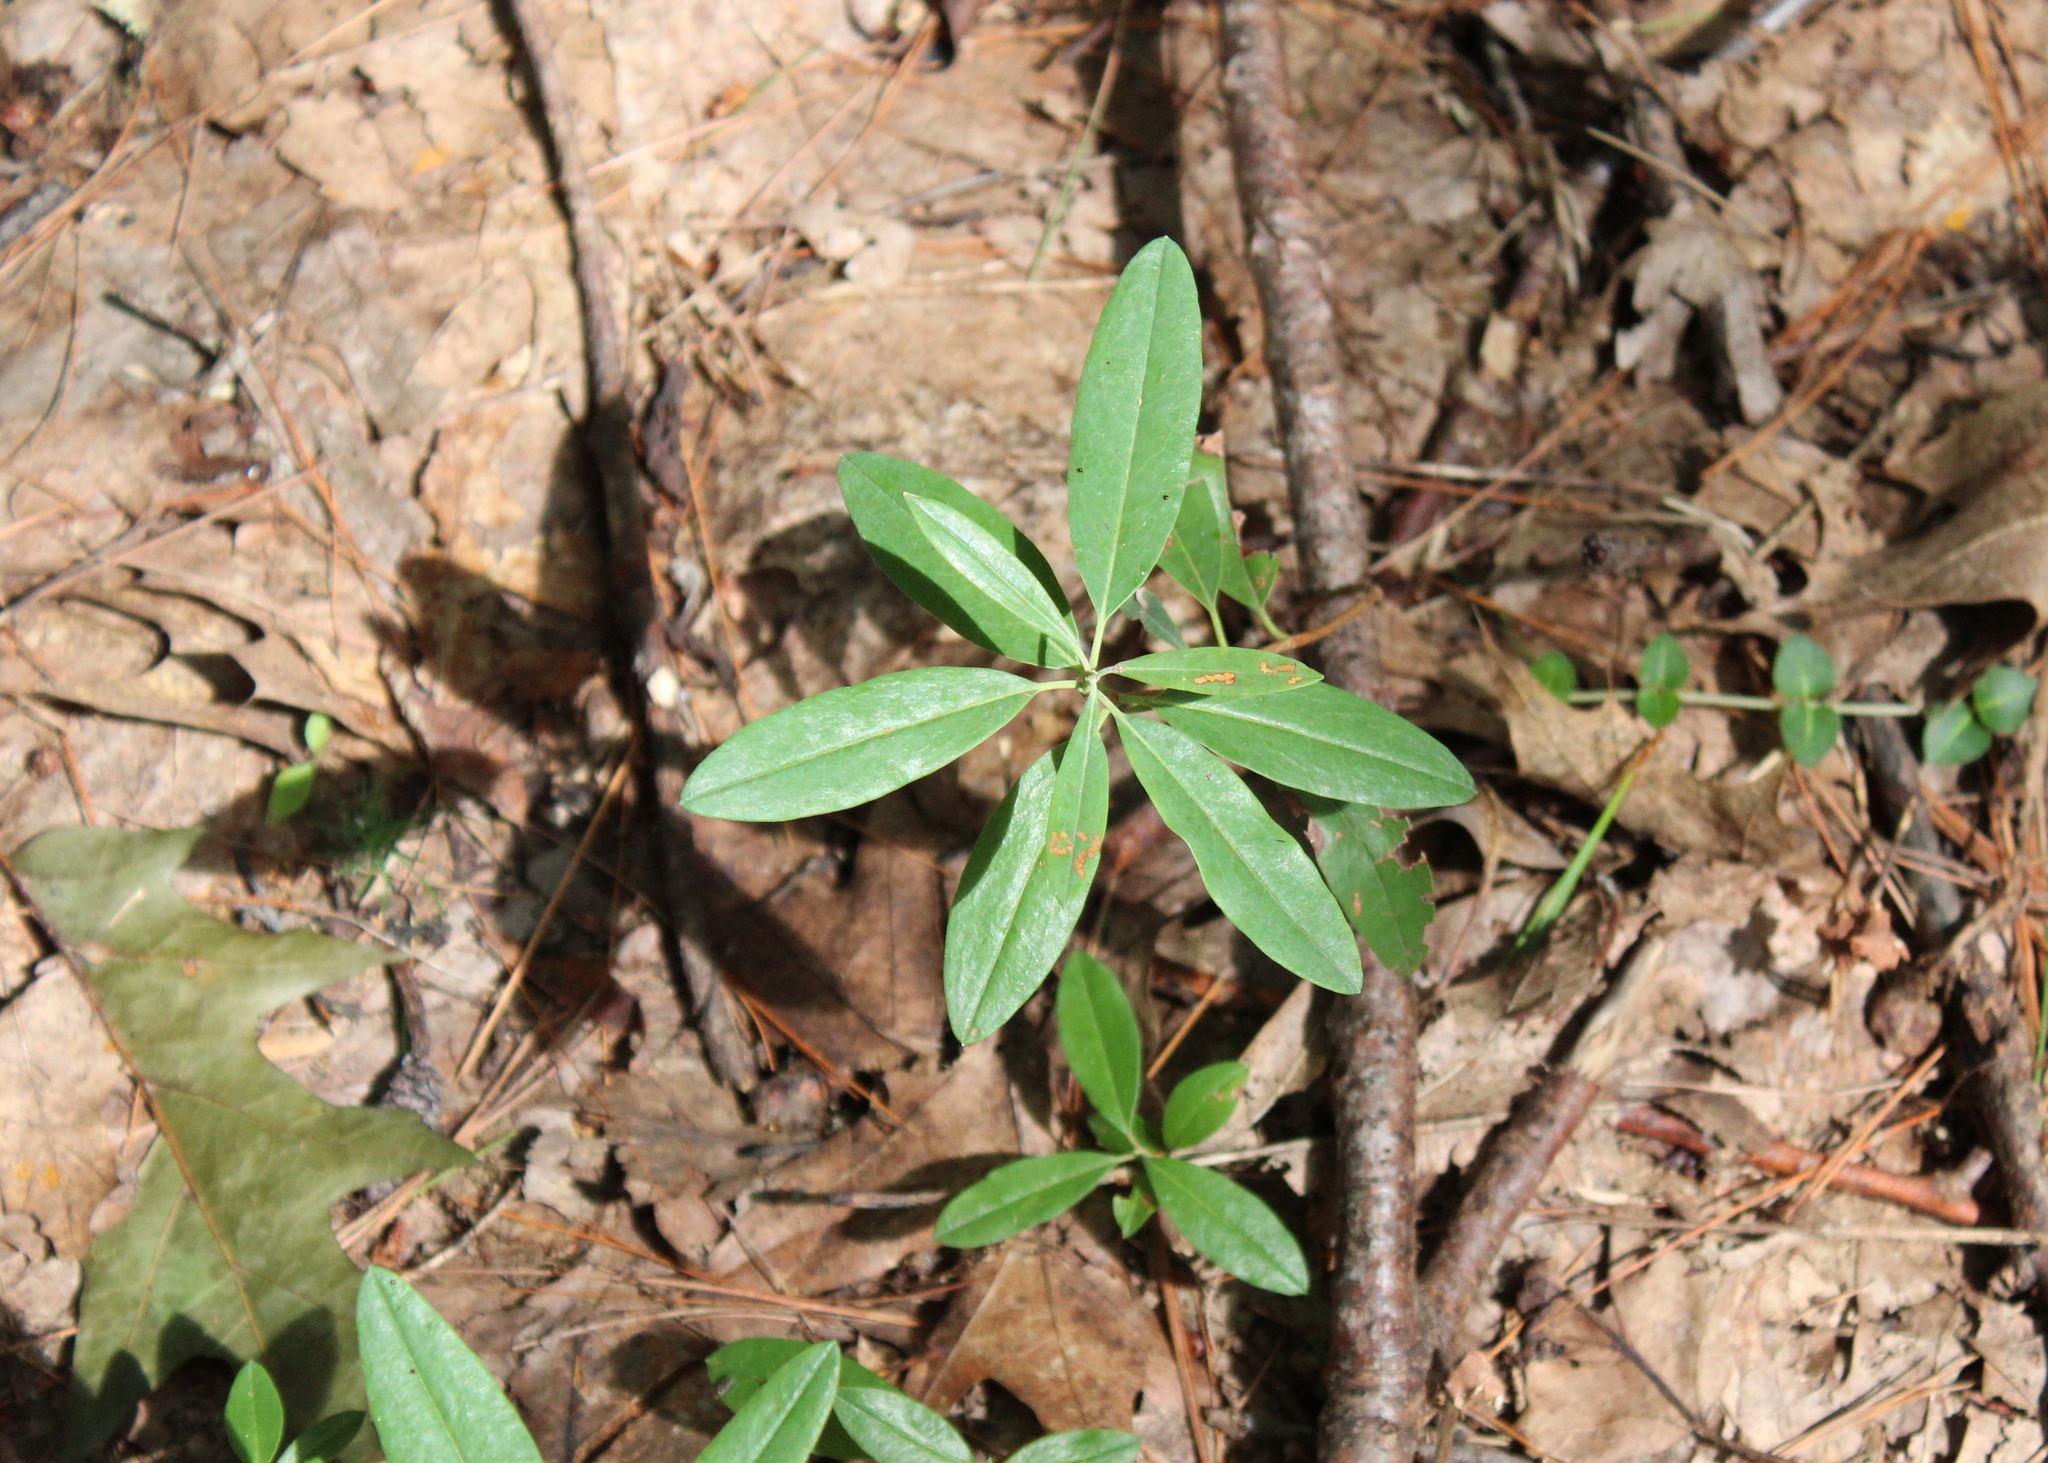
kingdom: Plantae
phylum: Tracheophyta
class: Magnoliopsida
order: Ericales
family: Ericaceae
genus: Kalmia
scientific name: Kalmia angustifolia
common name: Sheep-laurel
